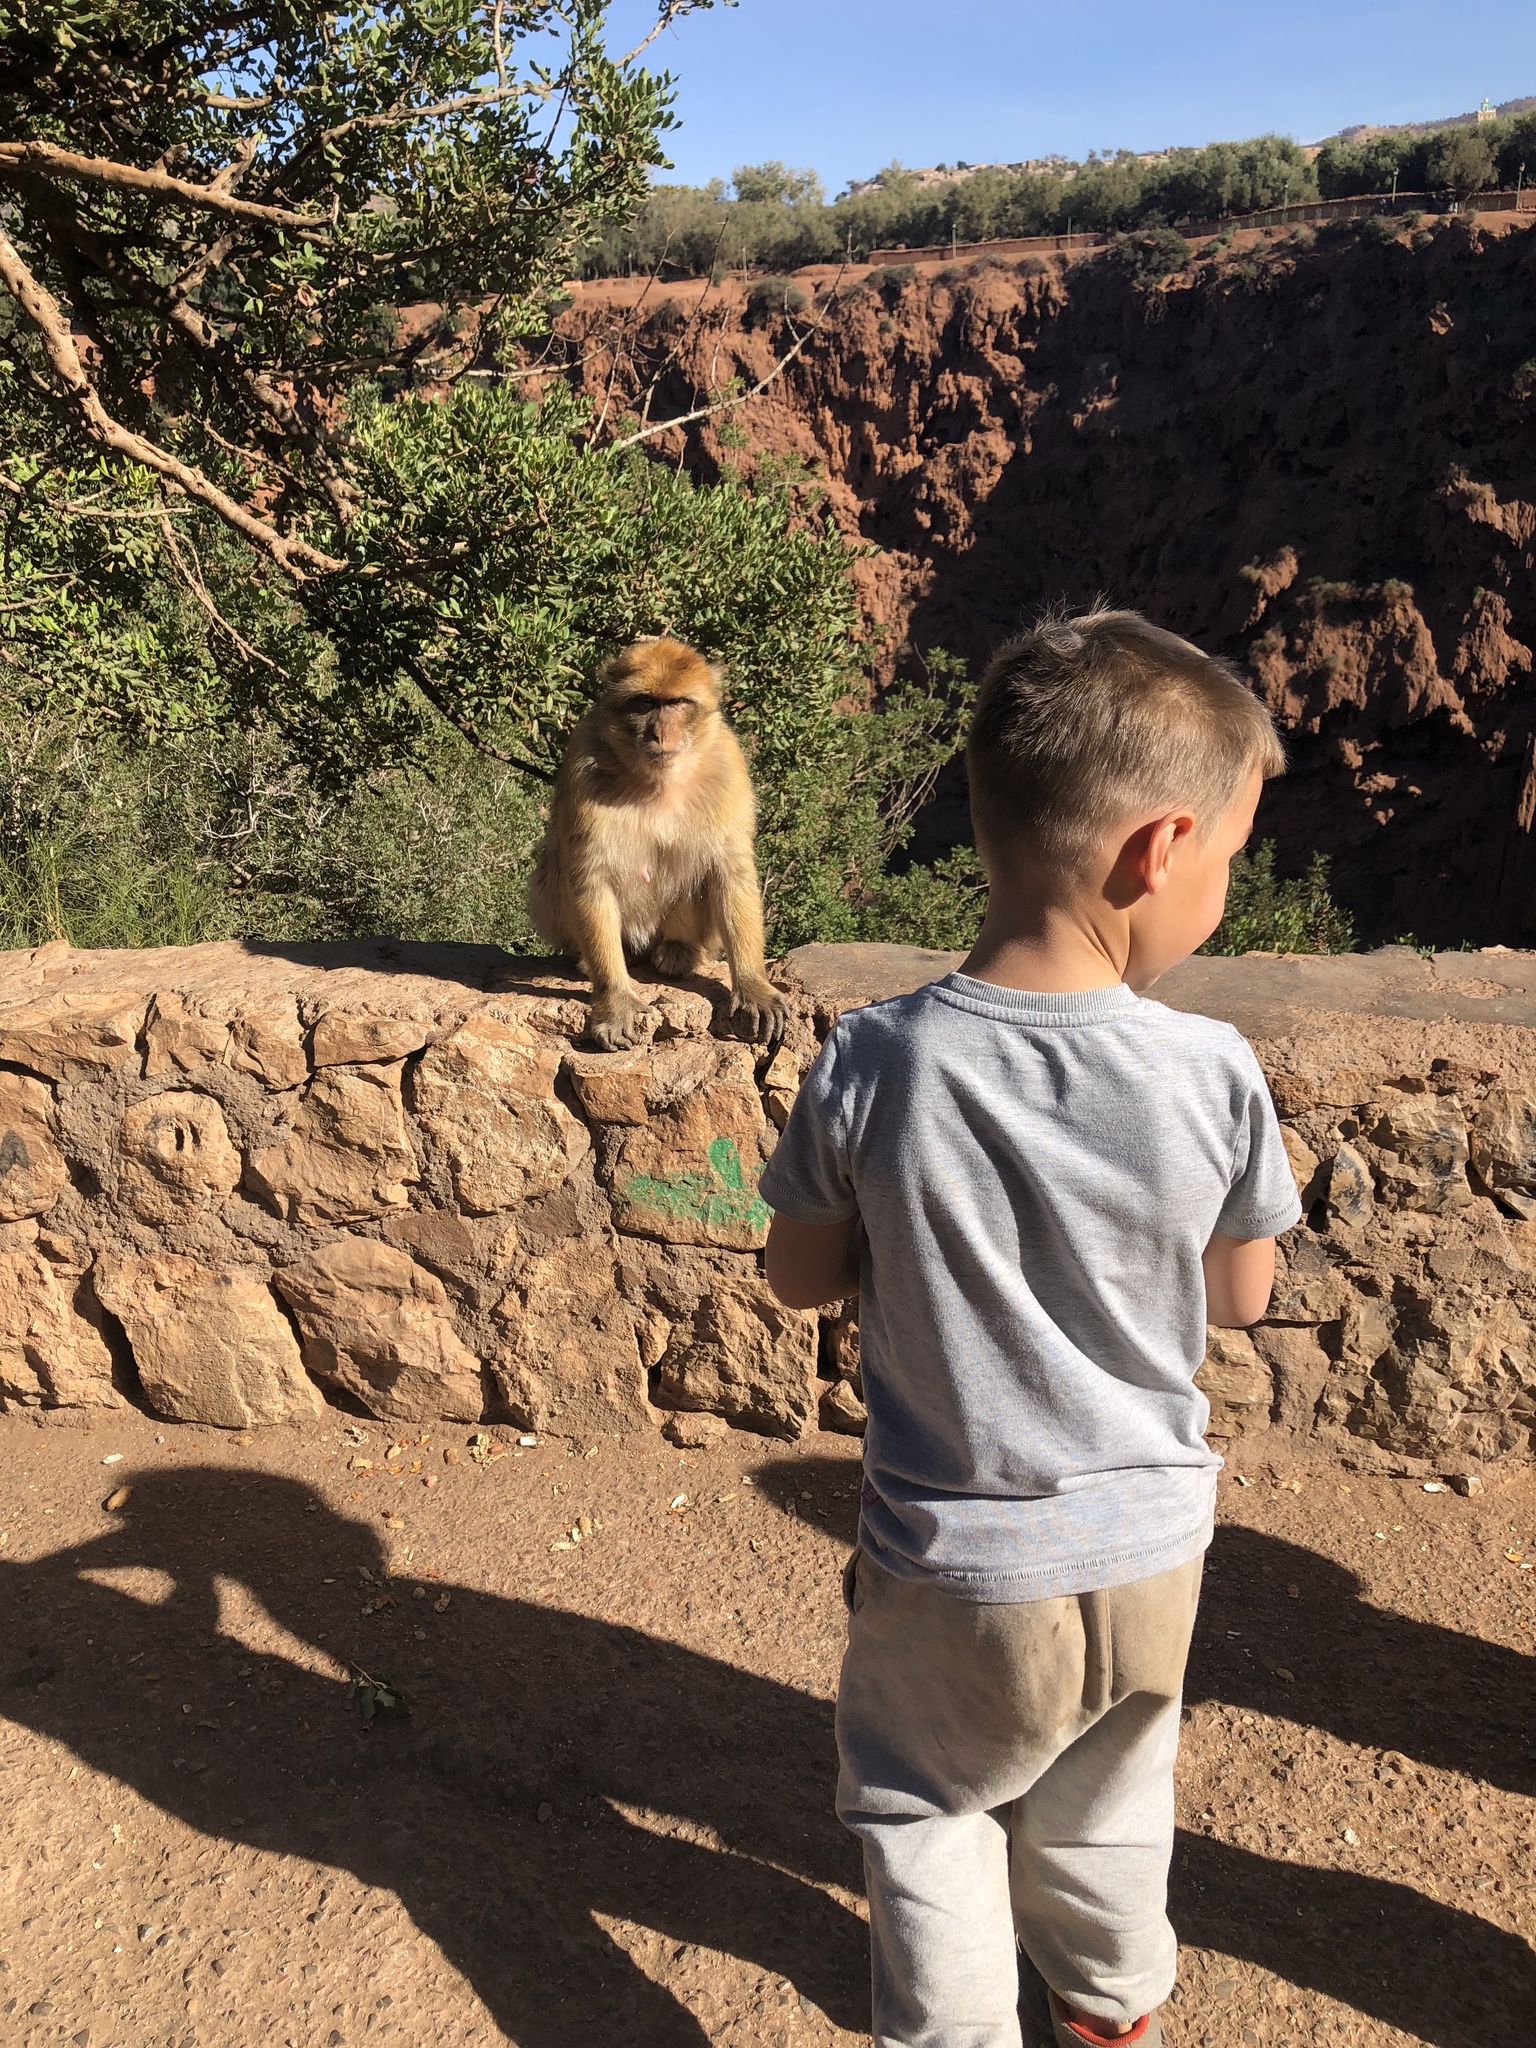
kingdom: Animalia
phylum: Chordata
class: Mammalia
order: Primates
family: Cercopithecidae
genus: Macaca
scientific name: Macaca sylvanus
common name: Barbary macaque
